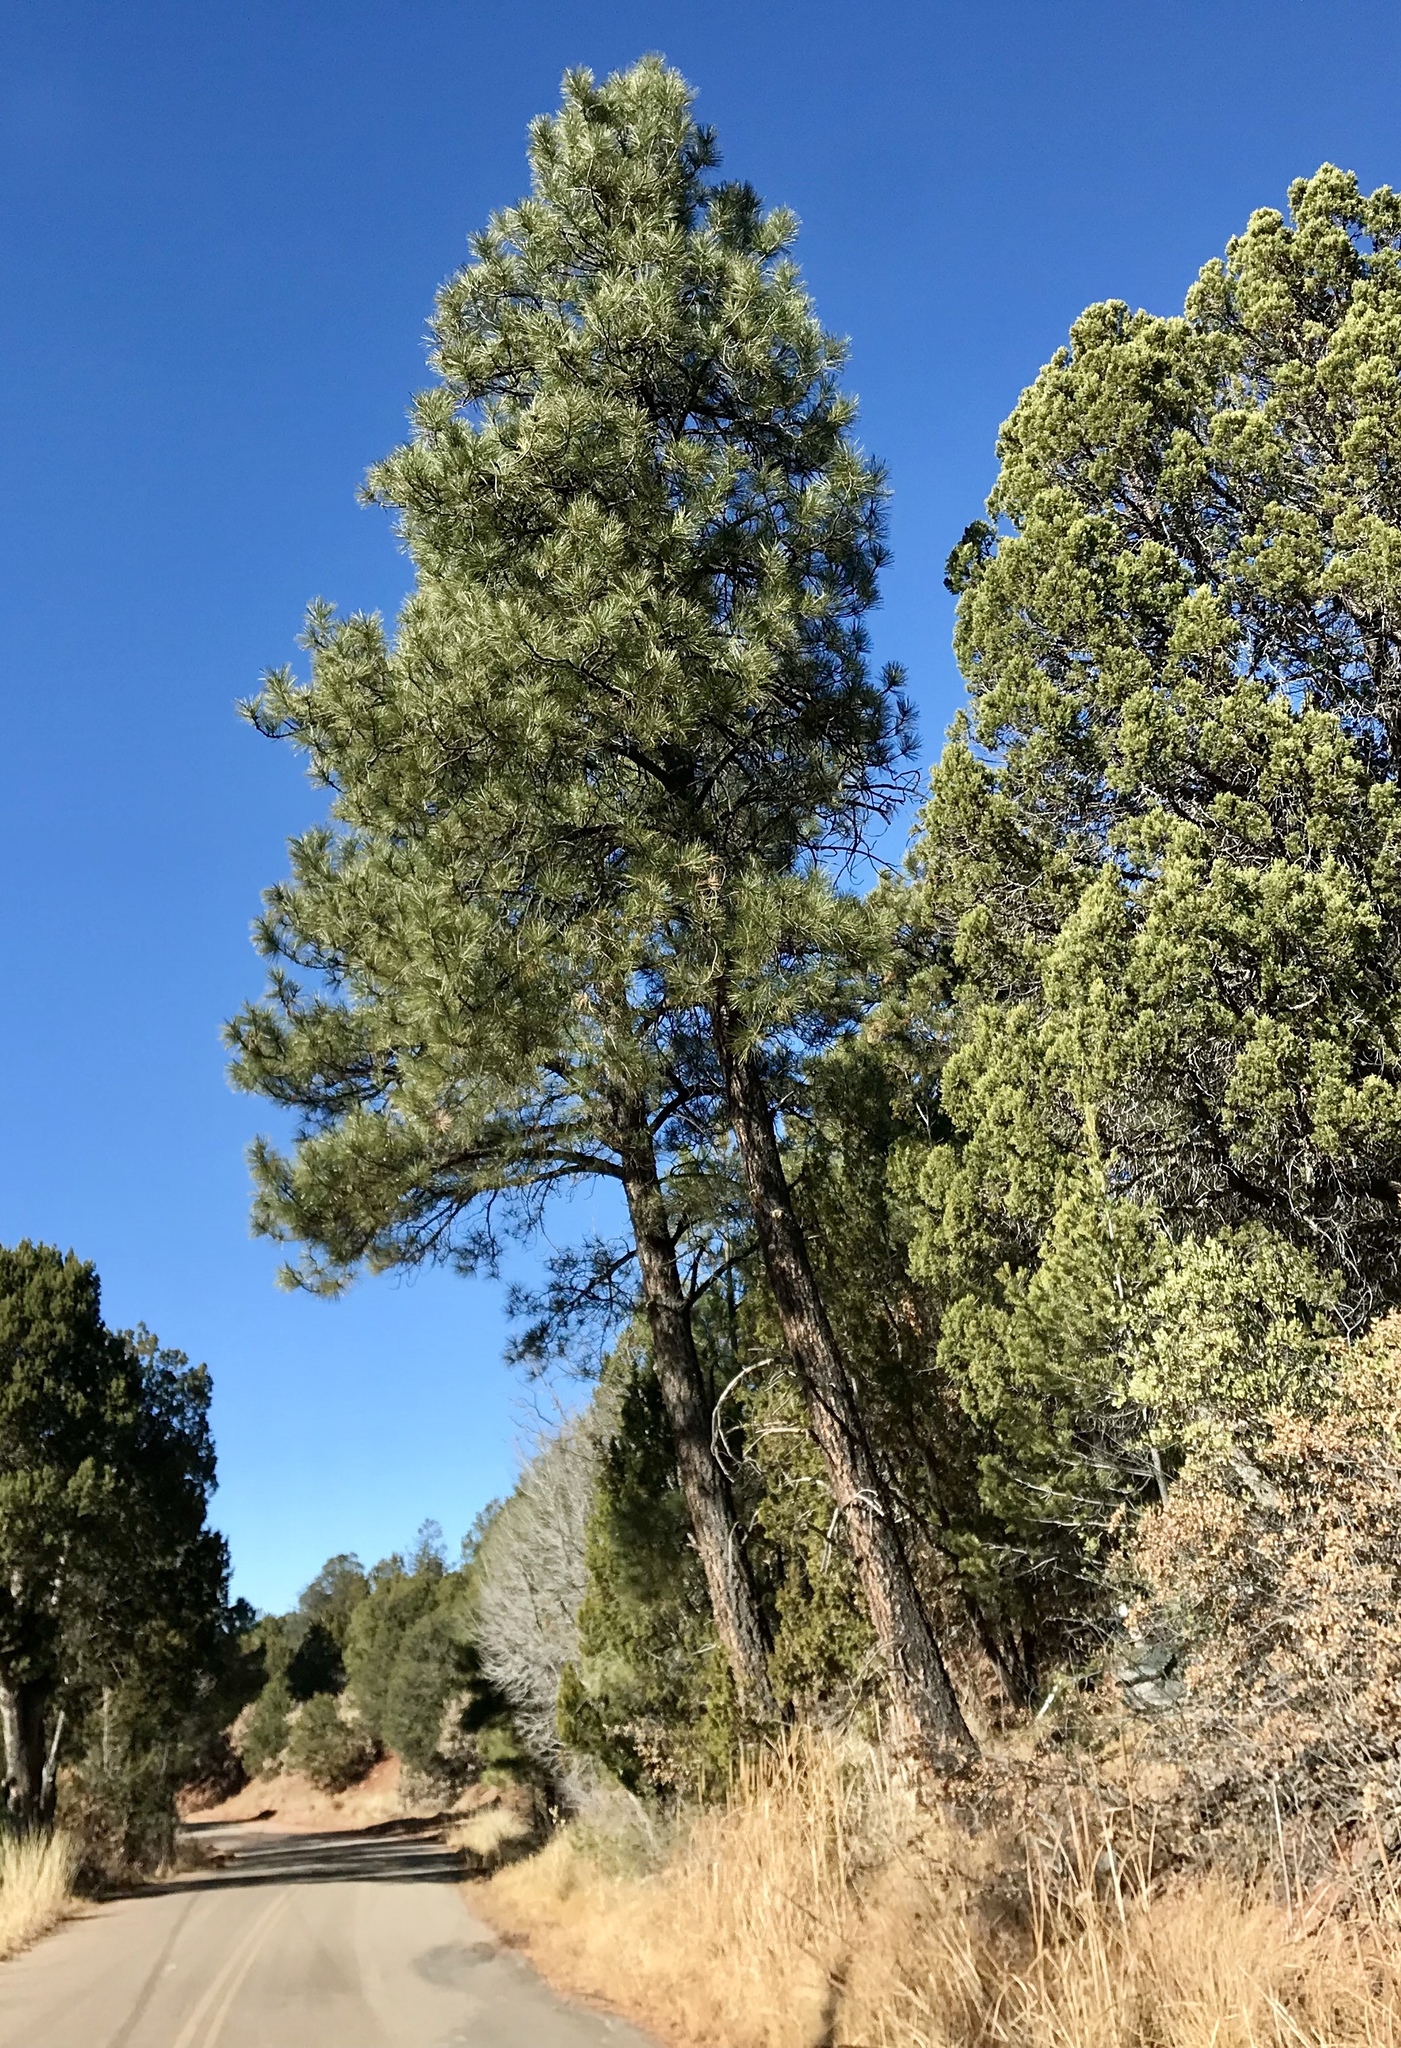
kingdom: Plantae
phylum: Tracheophyta
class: Pinopsida
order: Pinales
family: Pinaceae
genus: Pinus
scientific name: Pinus ponderosa
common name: Western yellow-pine
